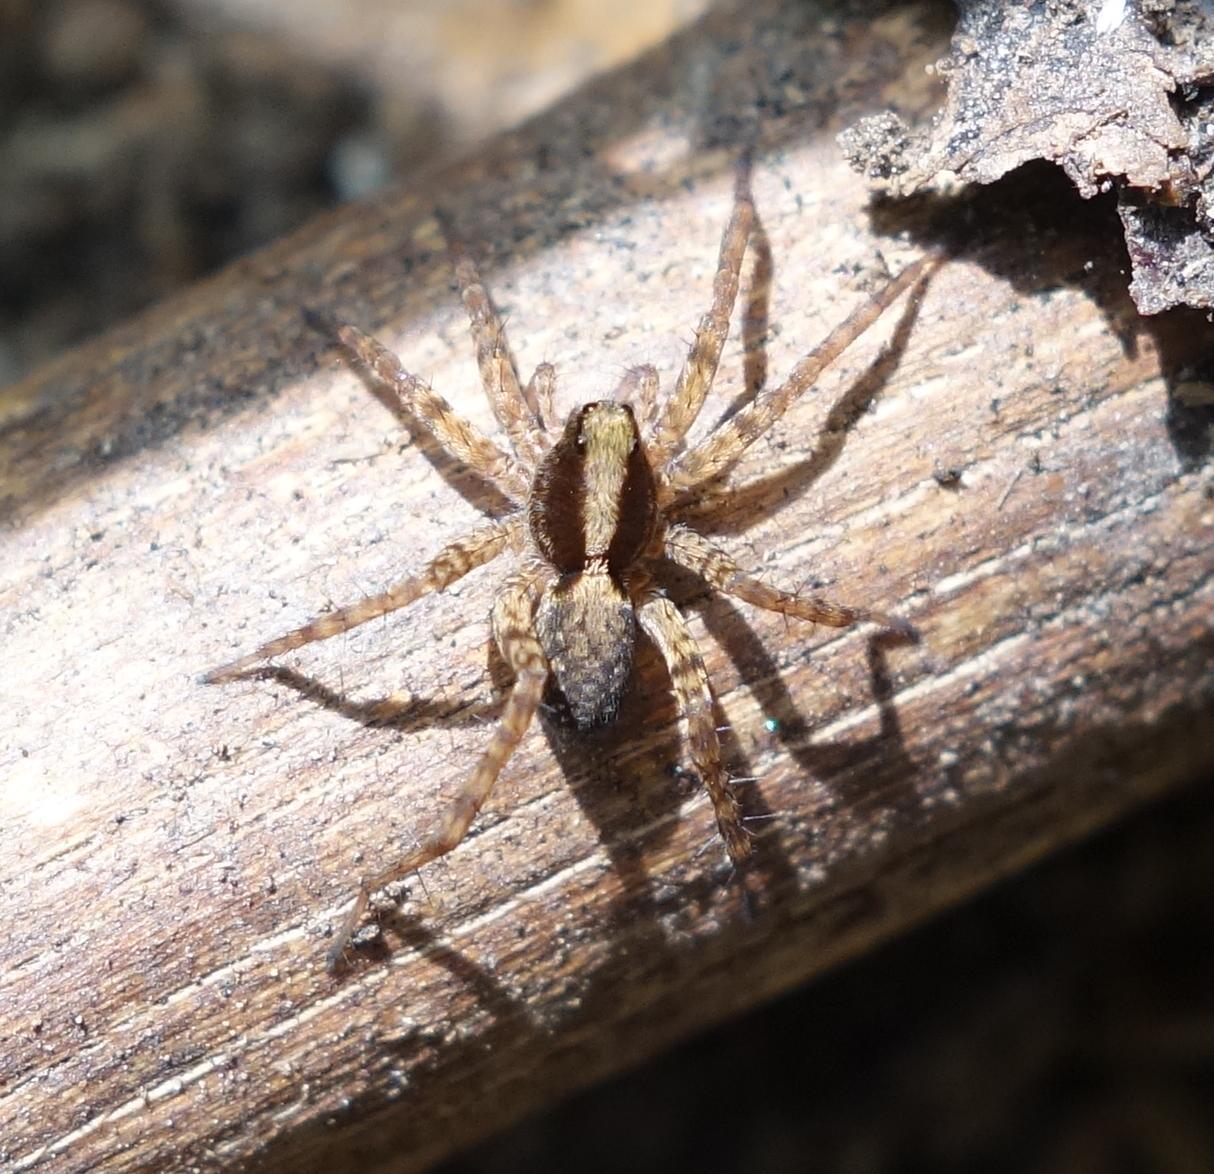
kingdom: Animalia
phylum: Arthropoda
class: Arachnida
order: Araneae
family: Lycosidae
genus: Pardosa
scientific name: Pardosa
